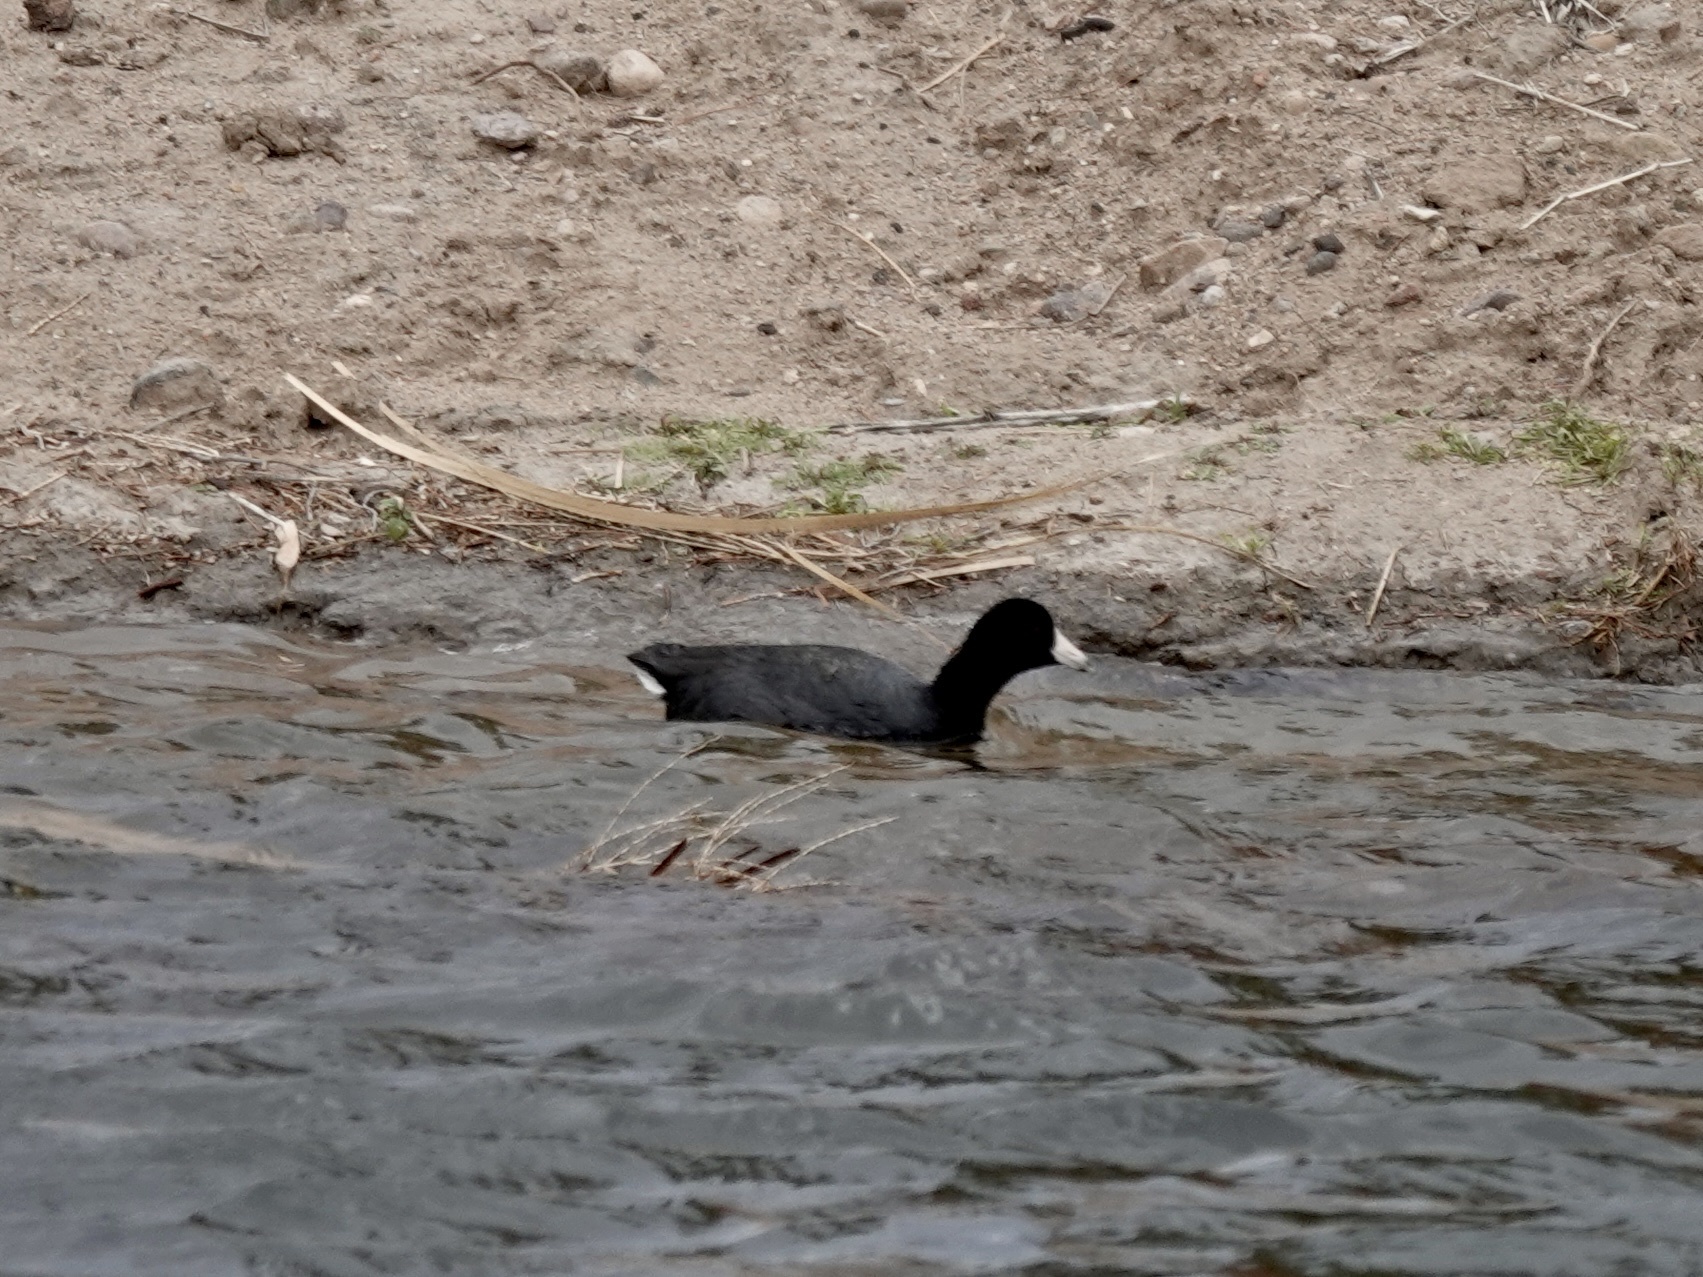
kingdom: Animalia
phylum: Chordata
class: Aves
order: Gruiformes
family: Rallidae
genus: Fulica
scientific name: Fulica americana
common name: American coot
